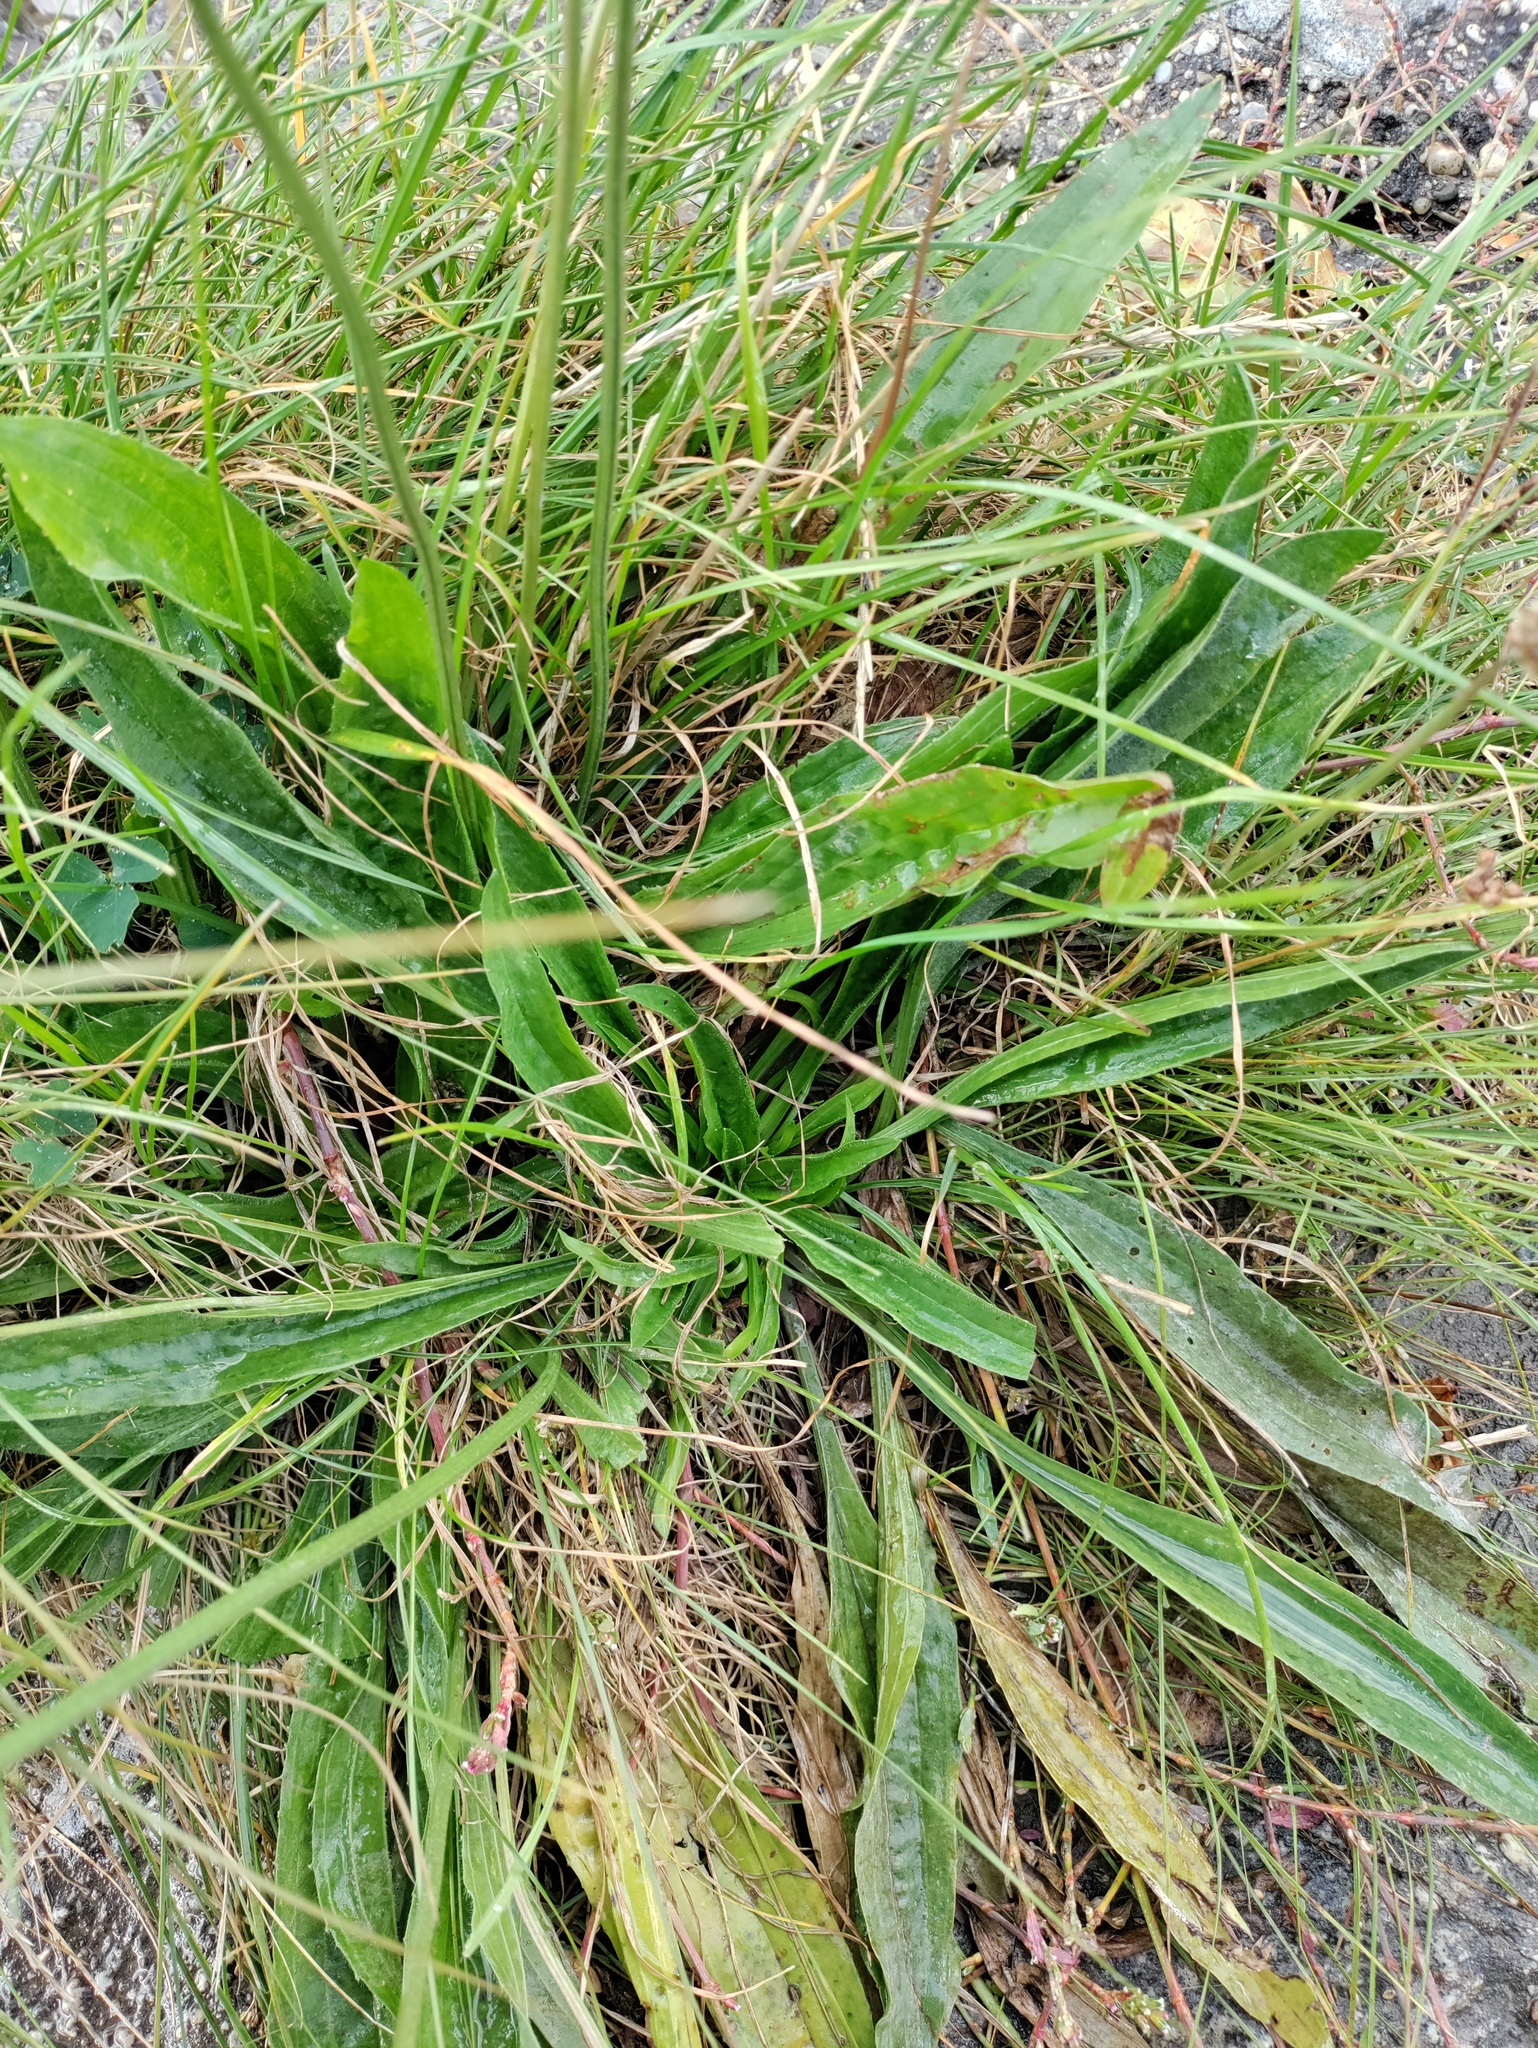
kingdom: Plantae
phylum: Tracheophyta
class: Magnoliopsida
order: Lamiales
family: Plantaginaceae
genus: Plantago
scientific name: Plantago lanceolata
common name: Ribwort plantain
